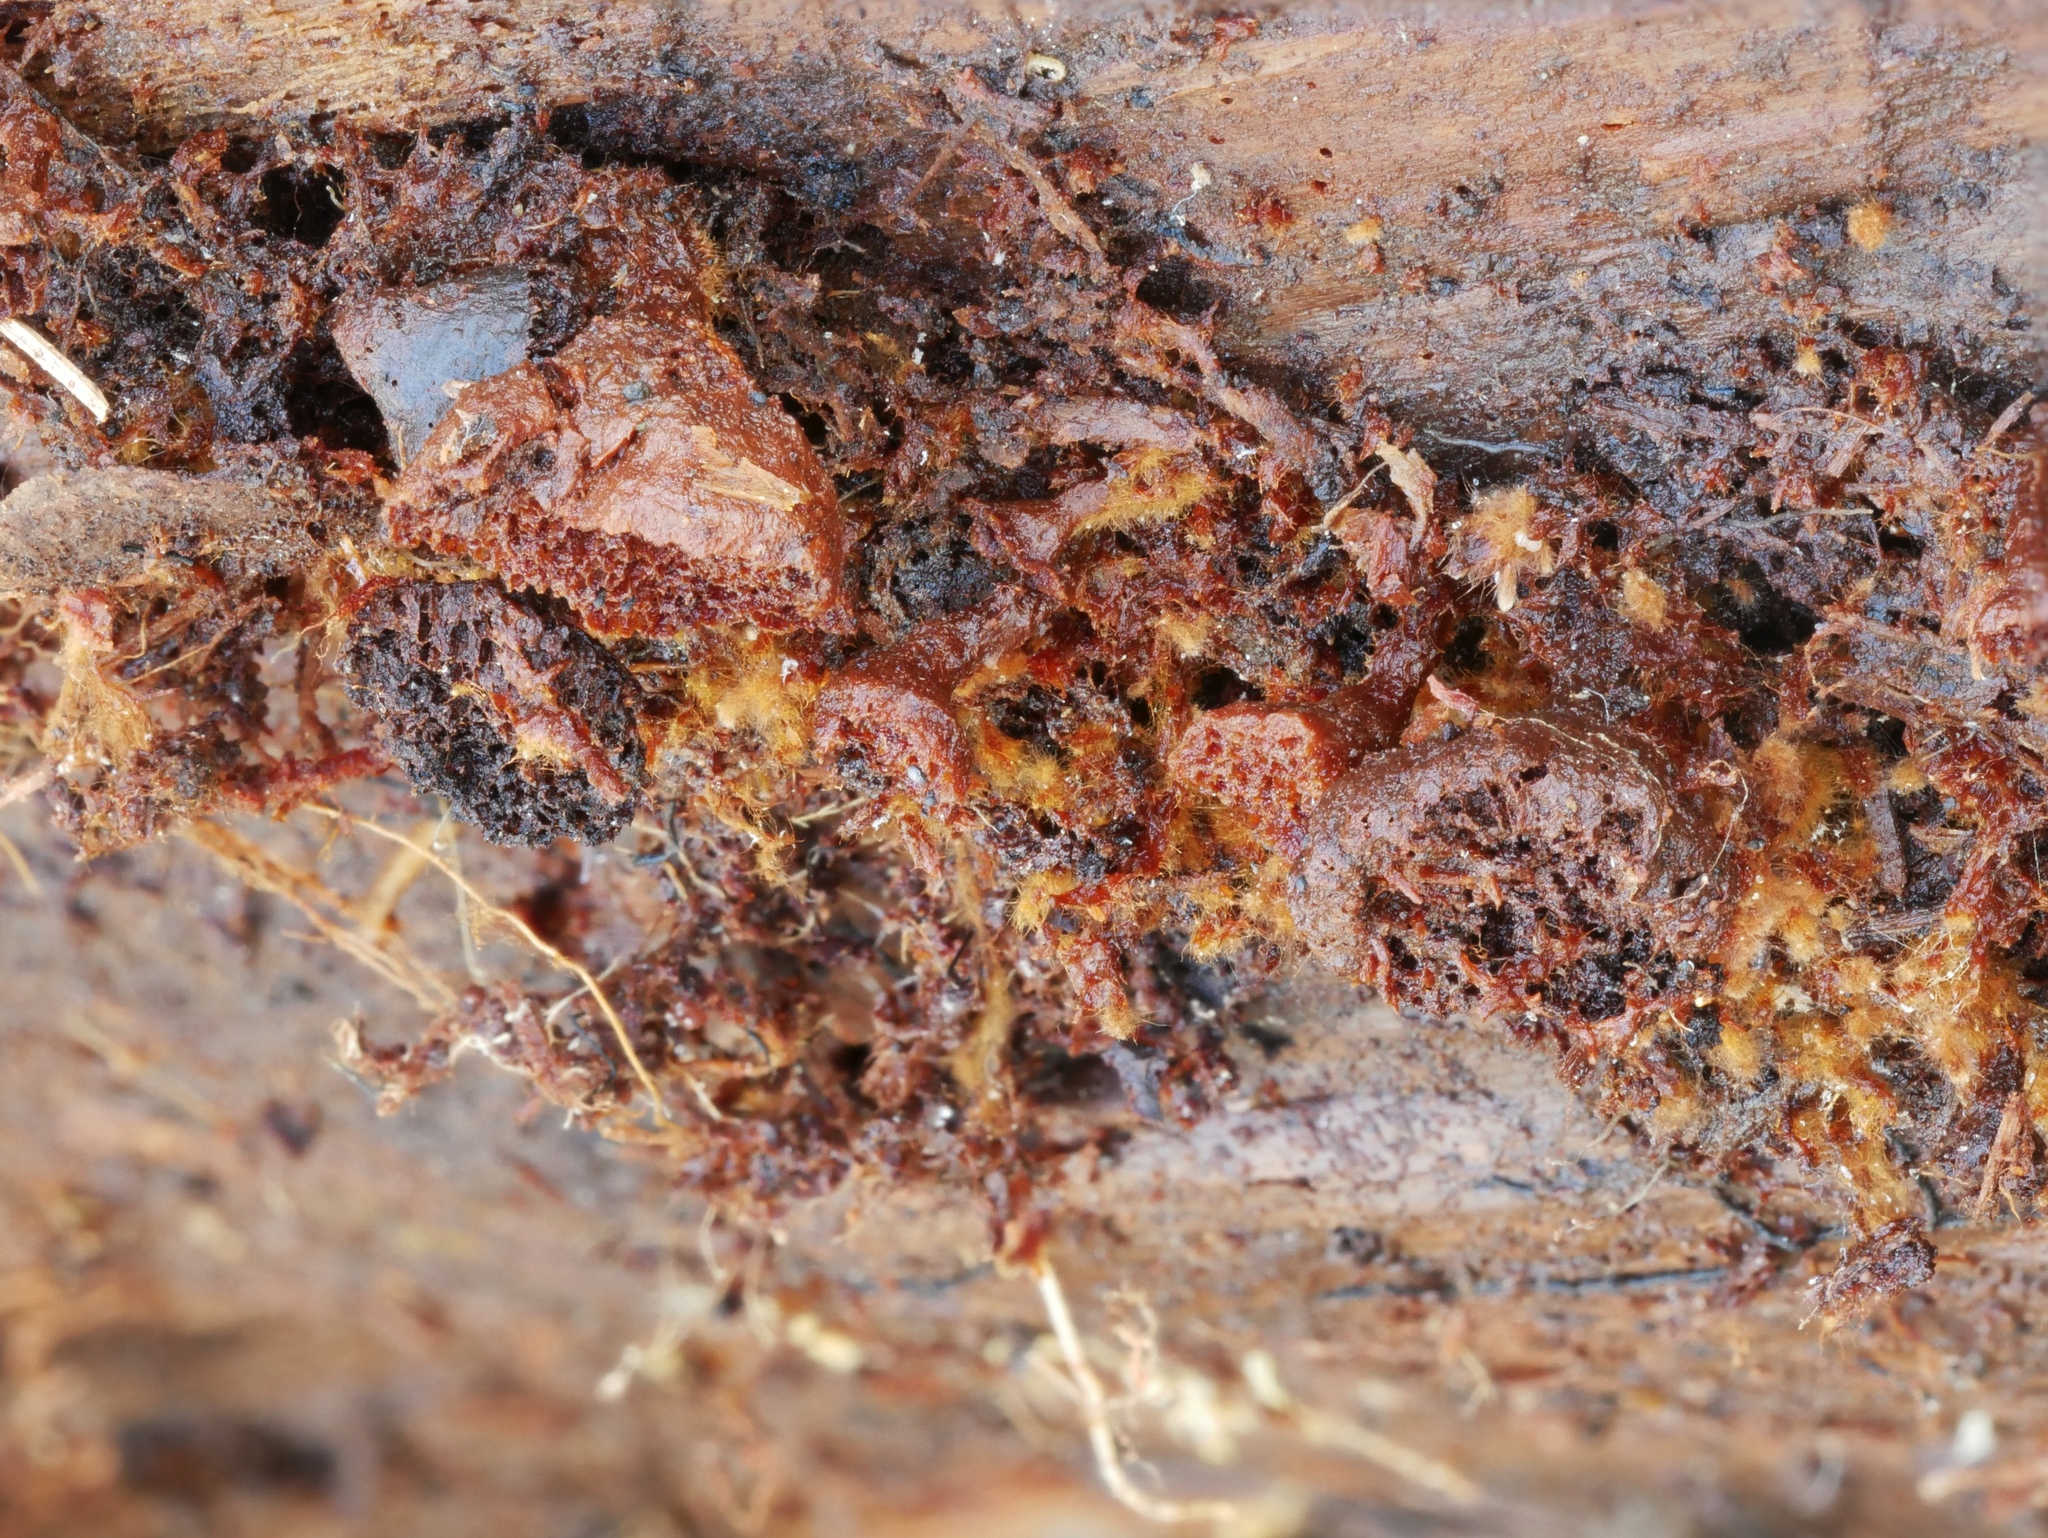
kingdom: Fungi
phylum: Basidiomycota
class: Agaricomycetes
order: Hymenochaetales
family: Hymenochaetaceae
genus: Coltriciella
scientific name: Coltriciella dependens
